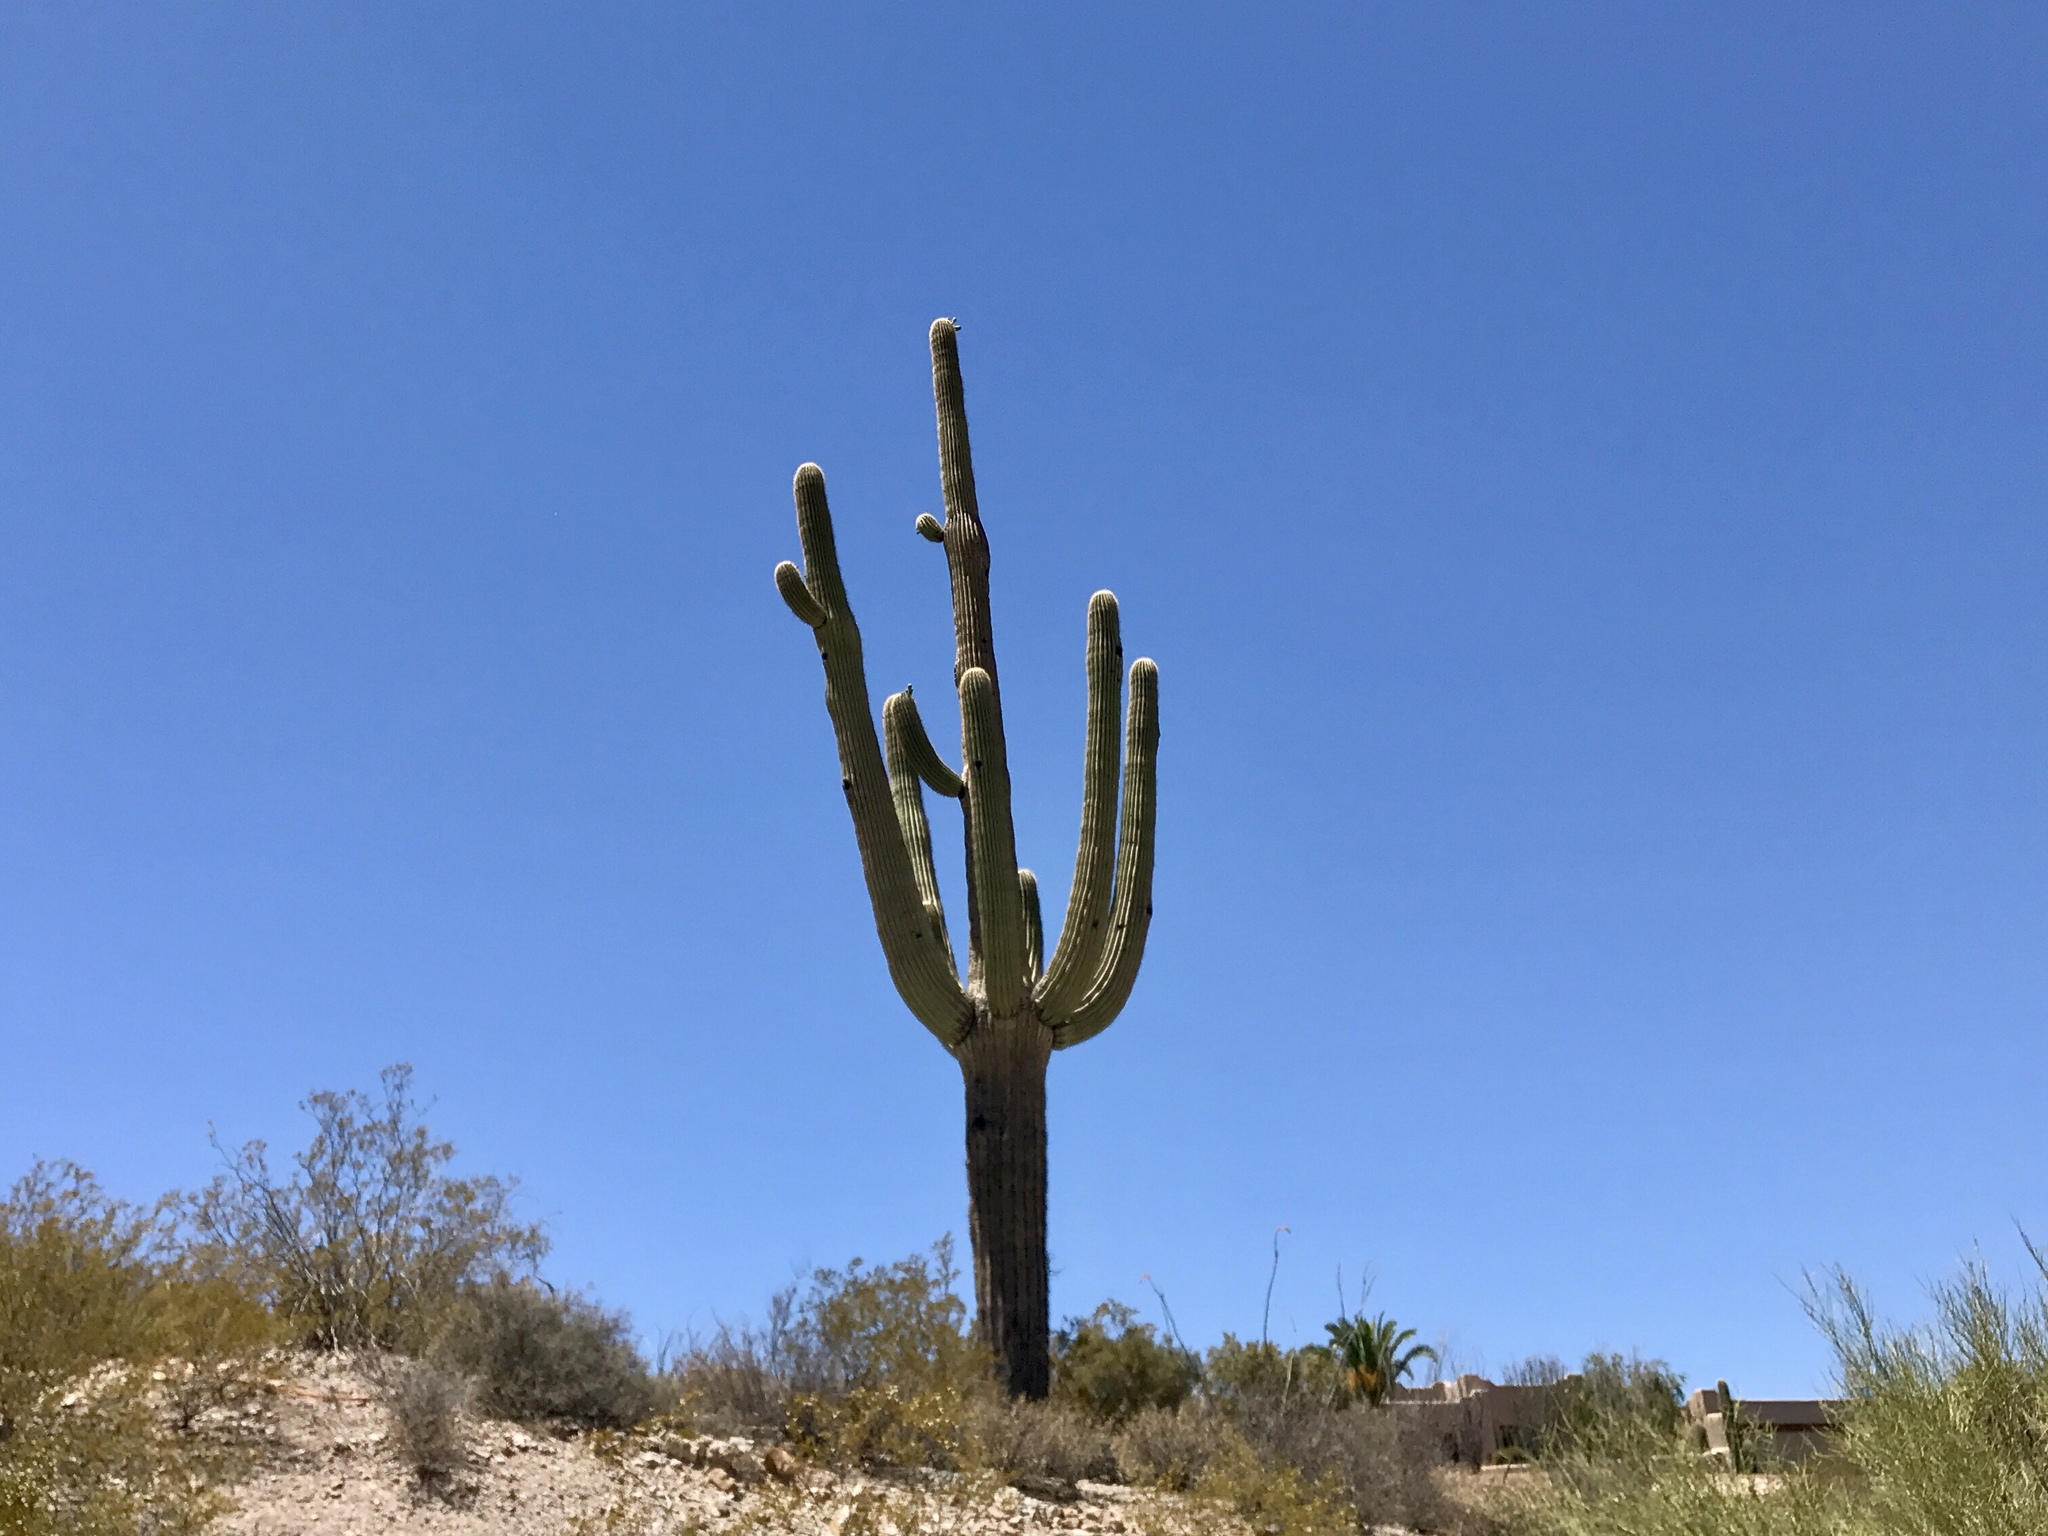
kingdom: Plantae
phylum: Tracheophyta
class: Magnoliopsida
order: Caryophyllales
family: Cactaceae
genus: Carnegiea
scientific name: Carnegiea gigantea
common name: Saguaro
